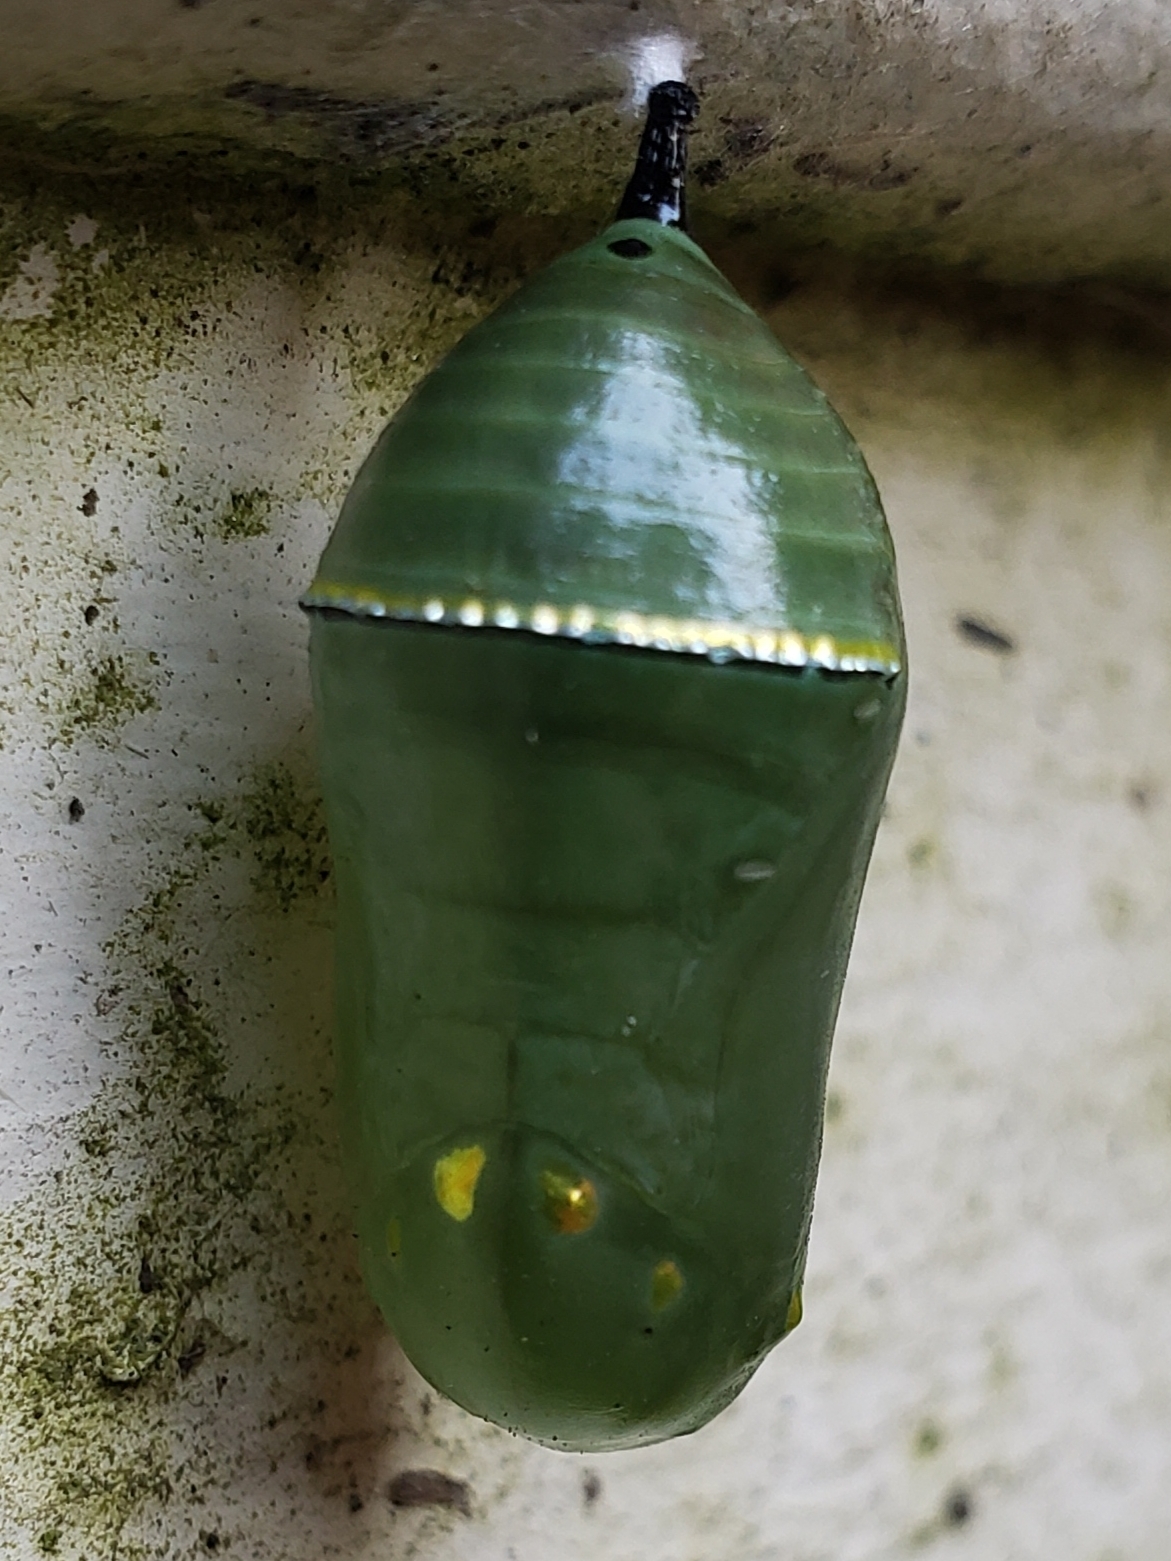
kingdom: Animalia
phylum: Arthropoda
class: Insecta
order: Lepidoptera
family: Nymphalidae
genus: Danaus
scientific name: Danaus plexippus
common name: Monarch
